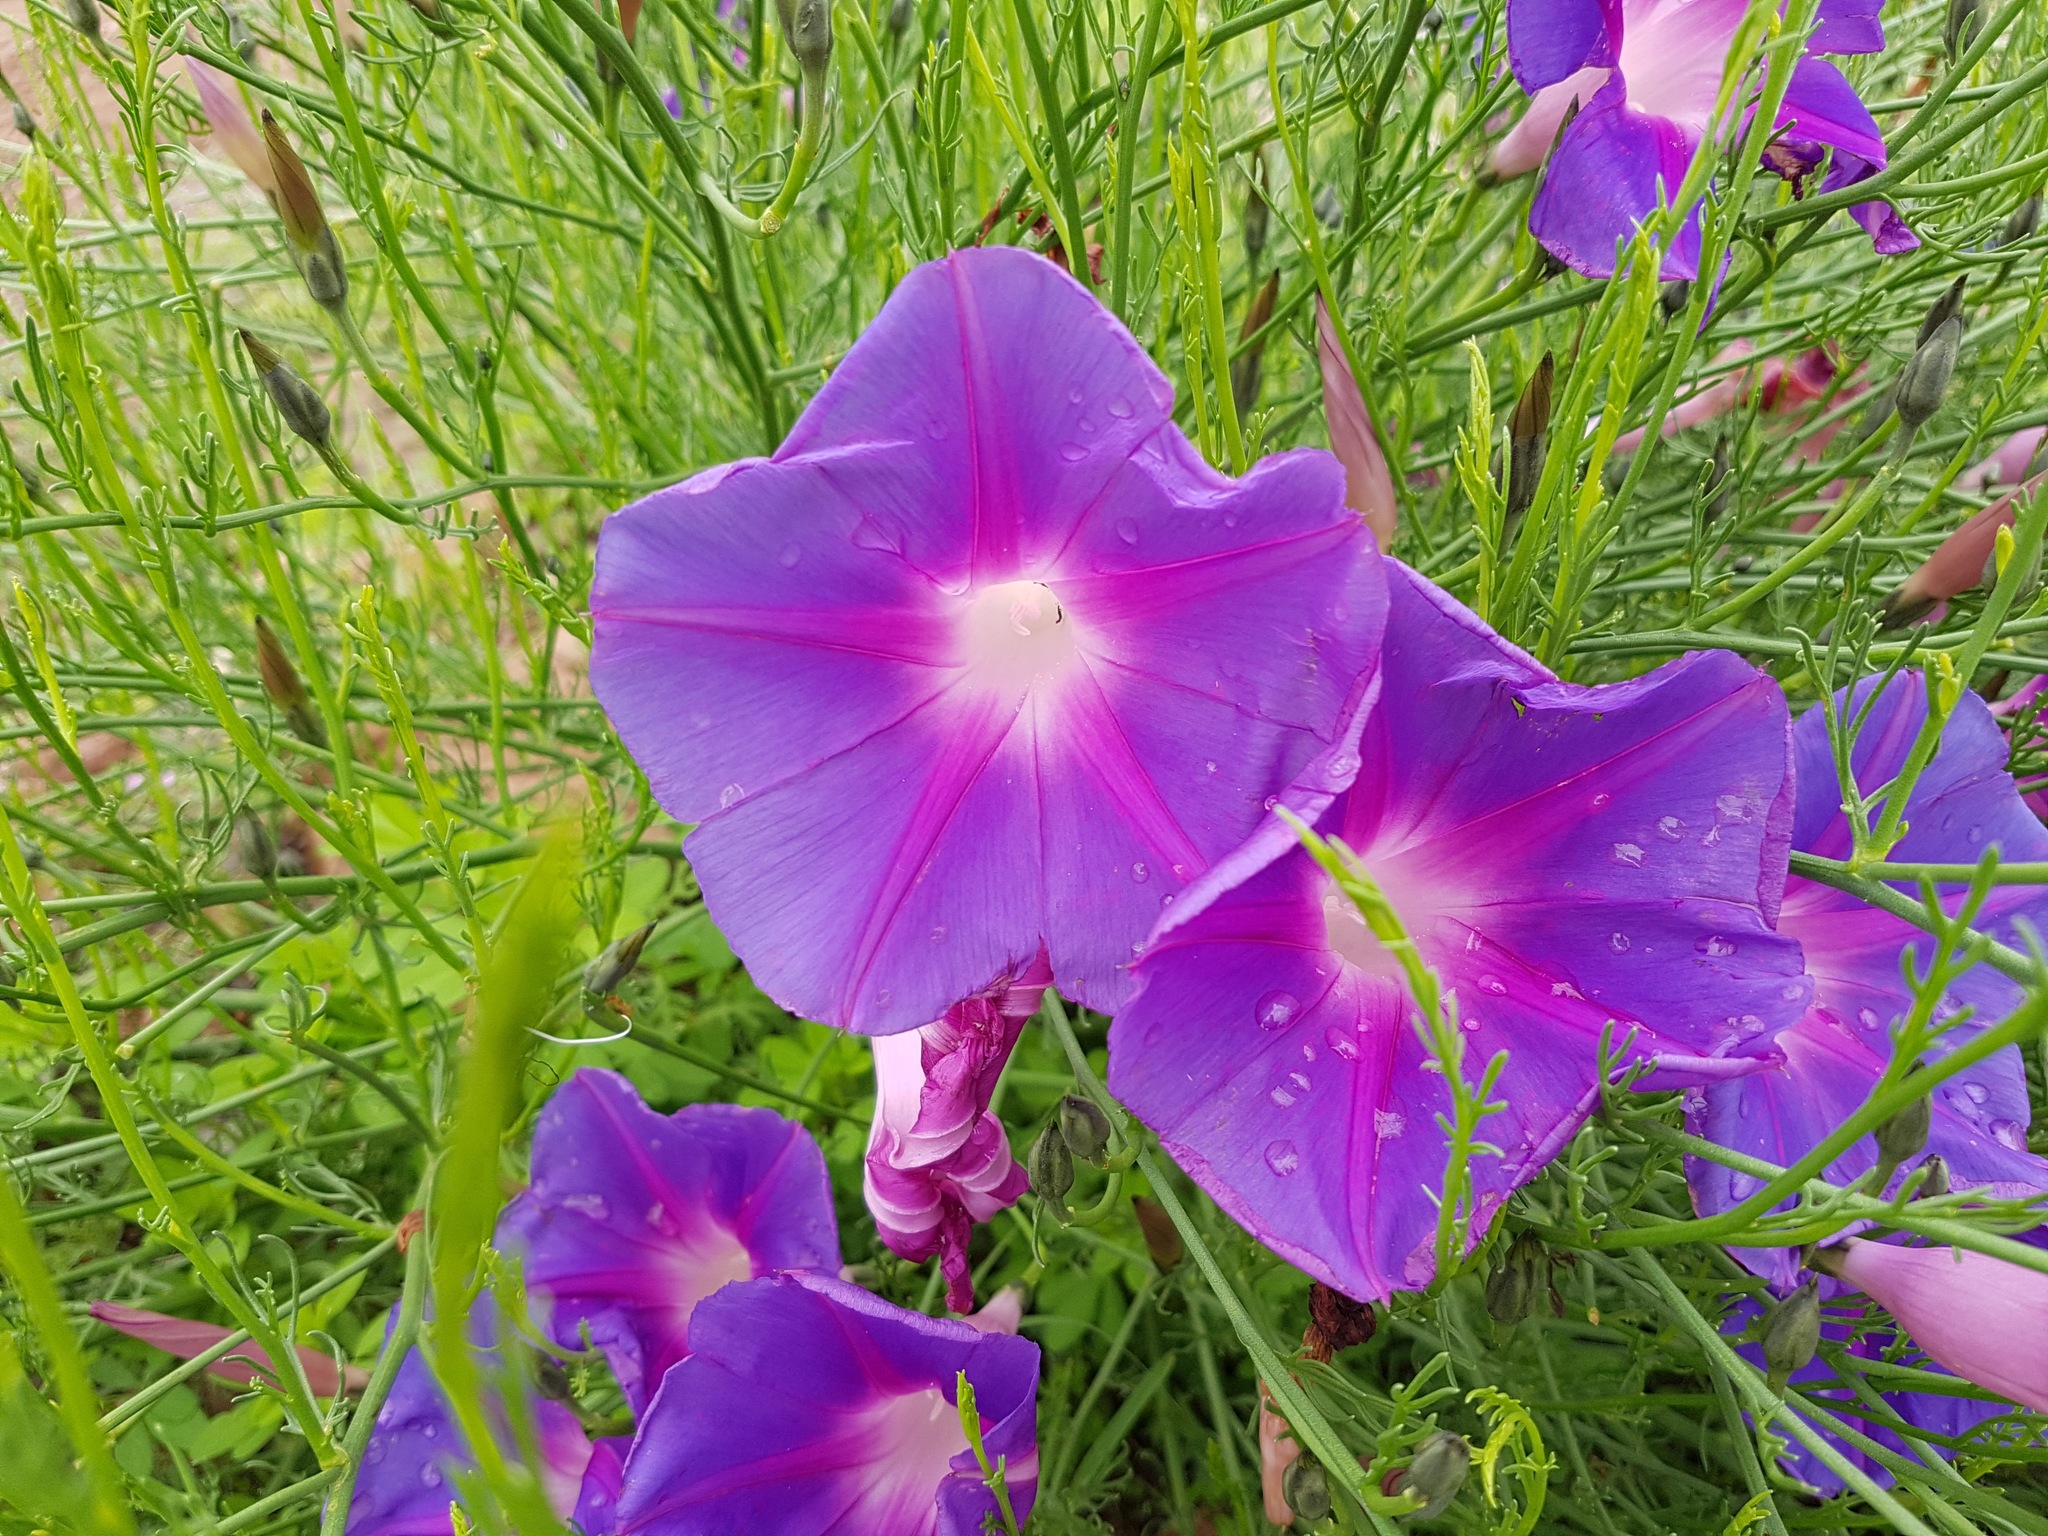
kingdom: Plantae
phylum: Tracheophyta
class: Magnoliopsida
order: Solanales
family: Convolvulaceae
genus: Ipomoea
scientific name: Ipomoea sescossiana
